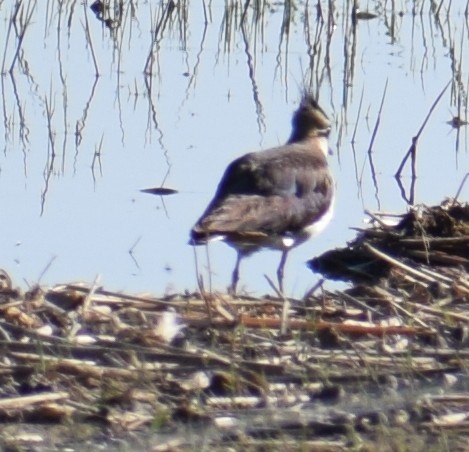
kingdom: Animalia
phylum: Chordata
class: Aves
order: Charadriiformes
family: Charadriidae
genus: Vanellus
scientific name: Vanellus vanellus
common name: Northern lapwing
